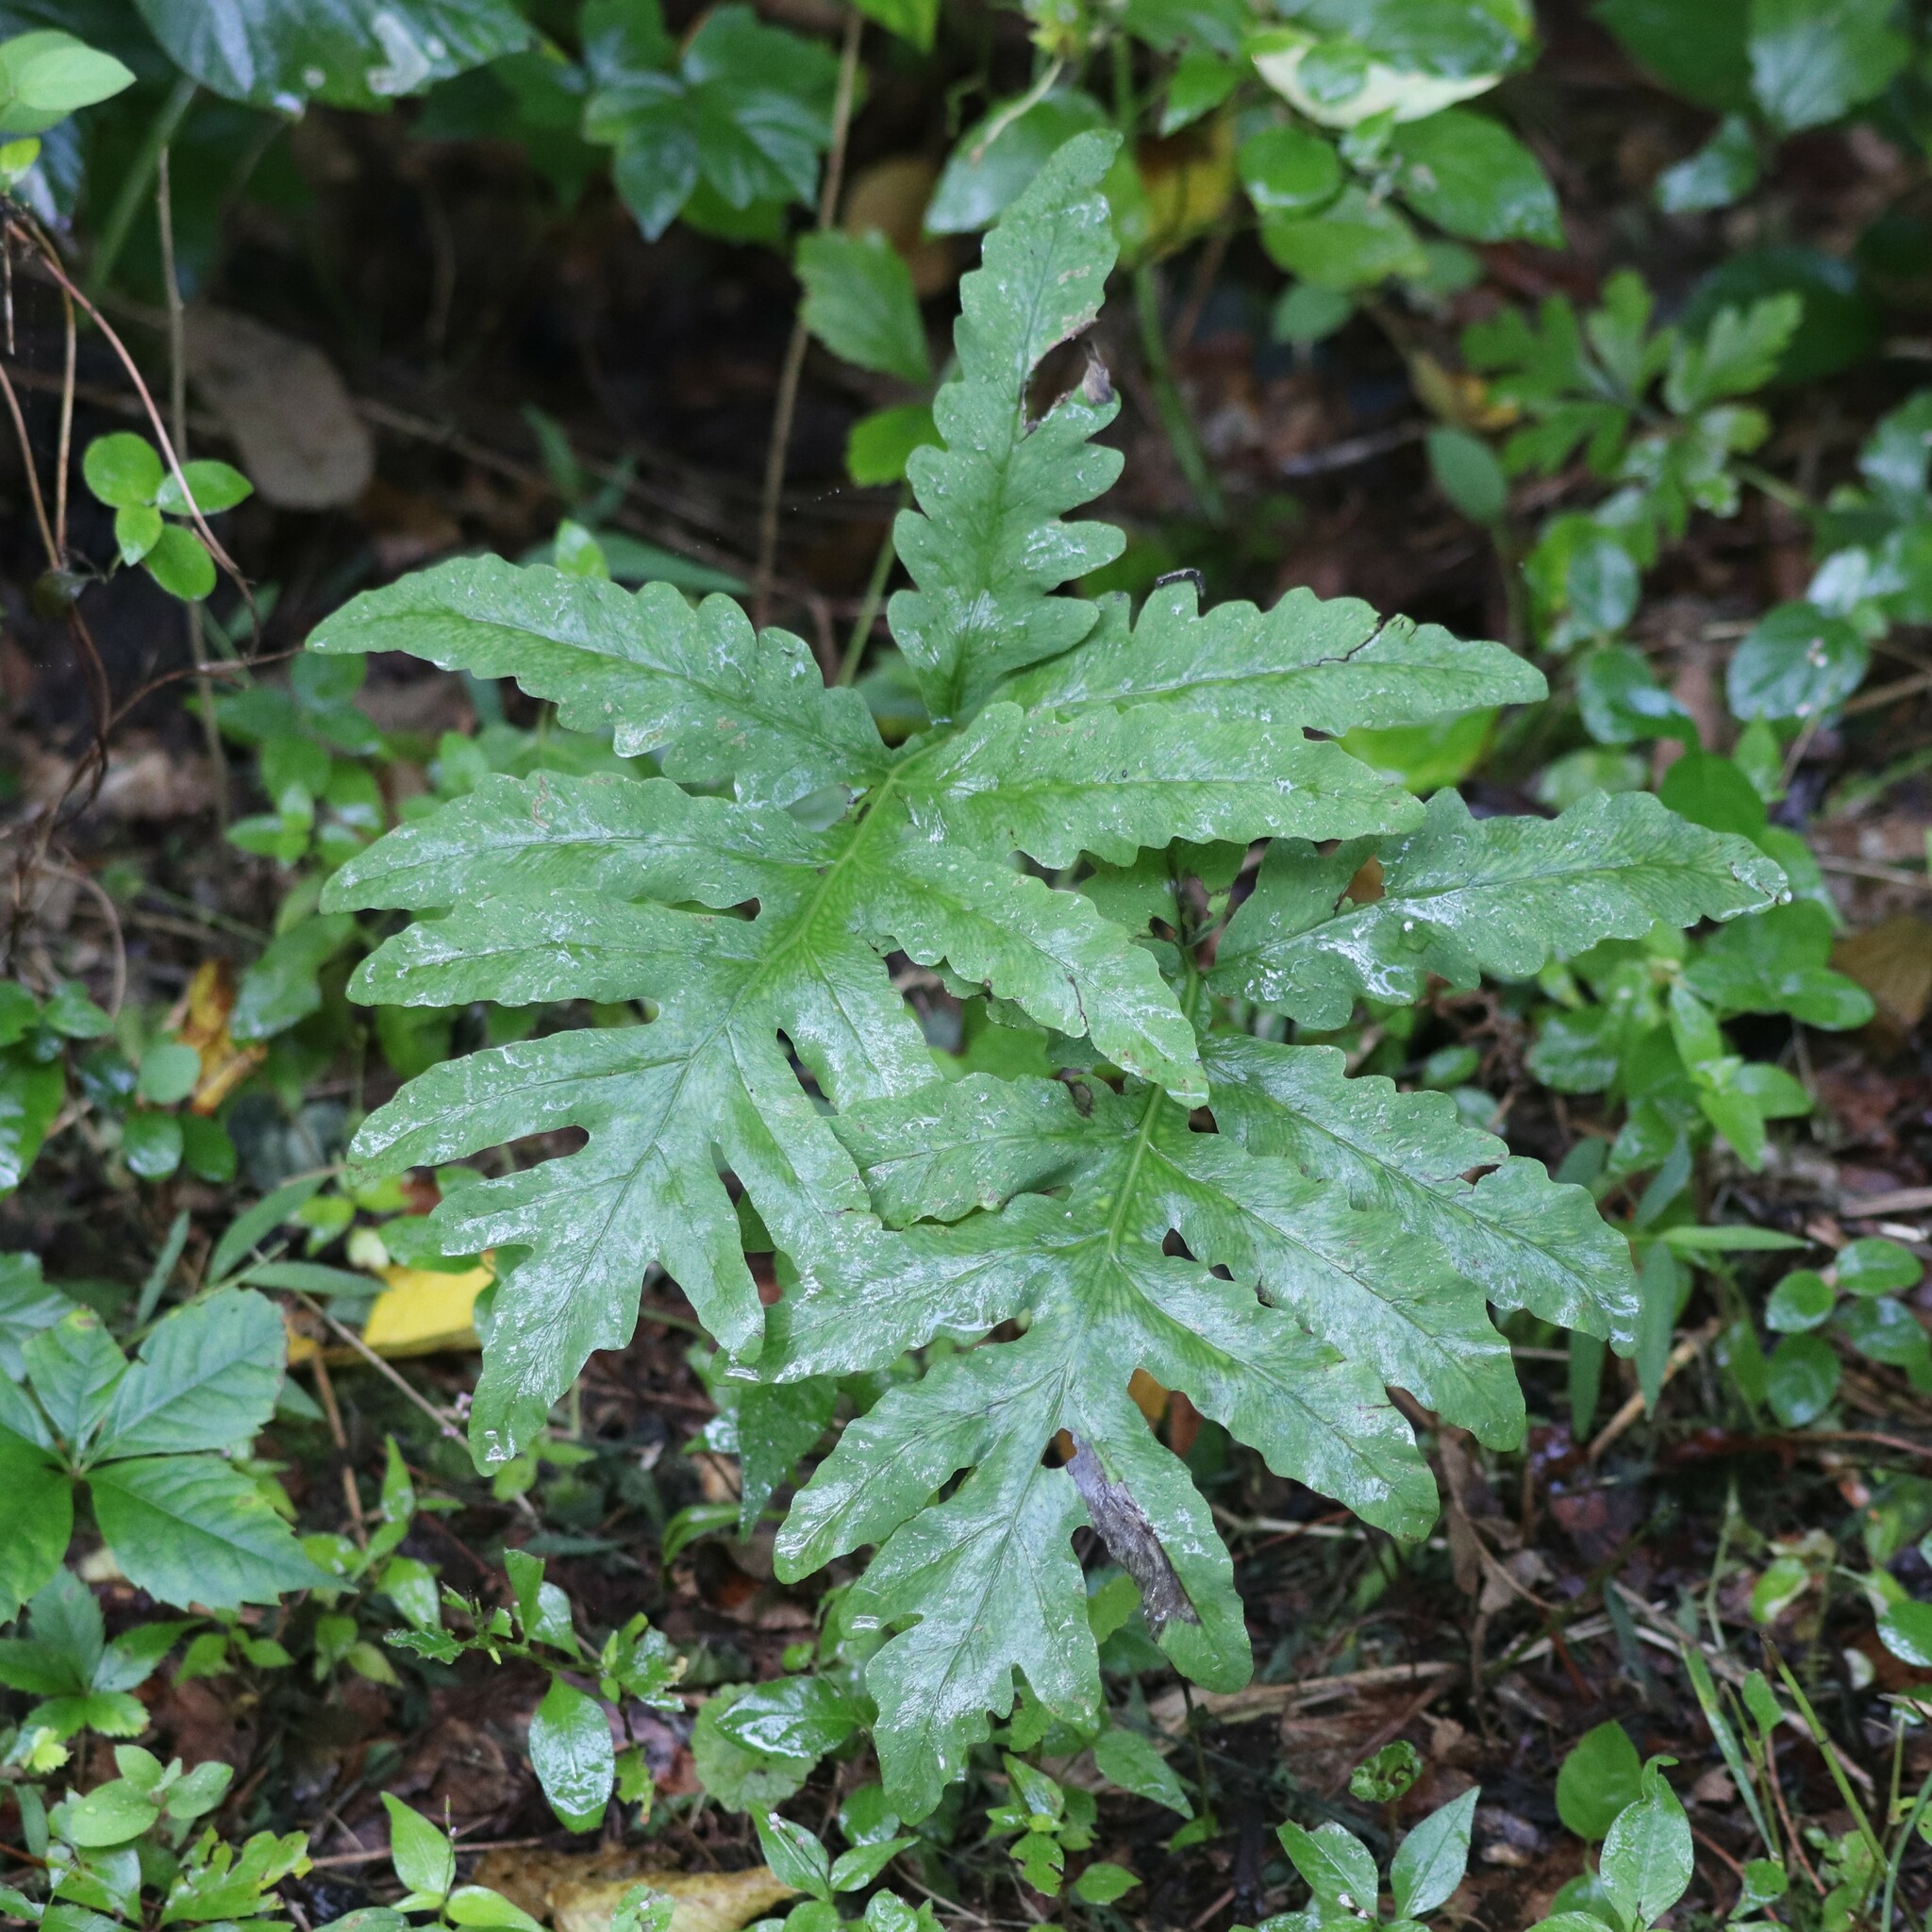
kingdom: Plantae
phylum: Tracheophyta
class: Polypodiopsida
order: Polypodiales
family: Onocleaceae
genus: Onoclea
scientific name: Onoclea sensibilis
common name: Sensitive fern
